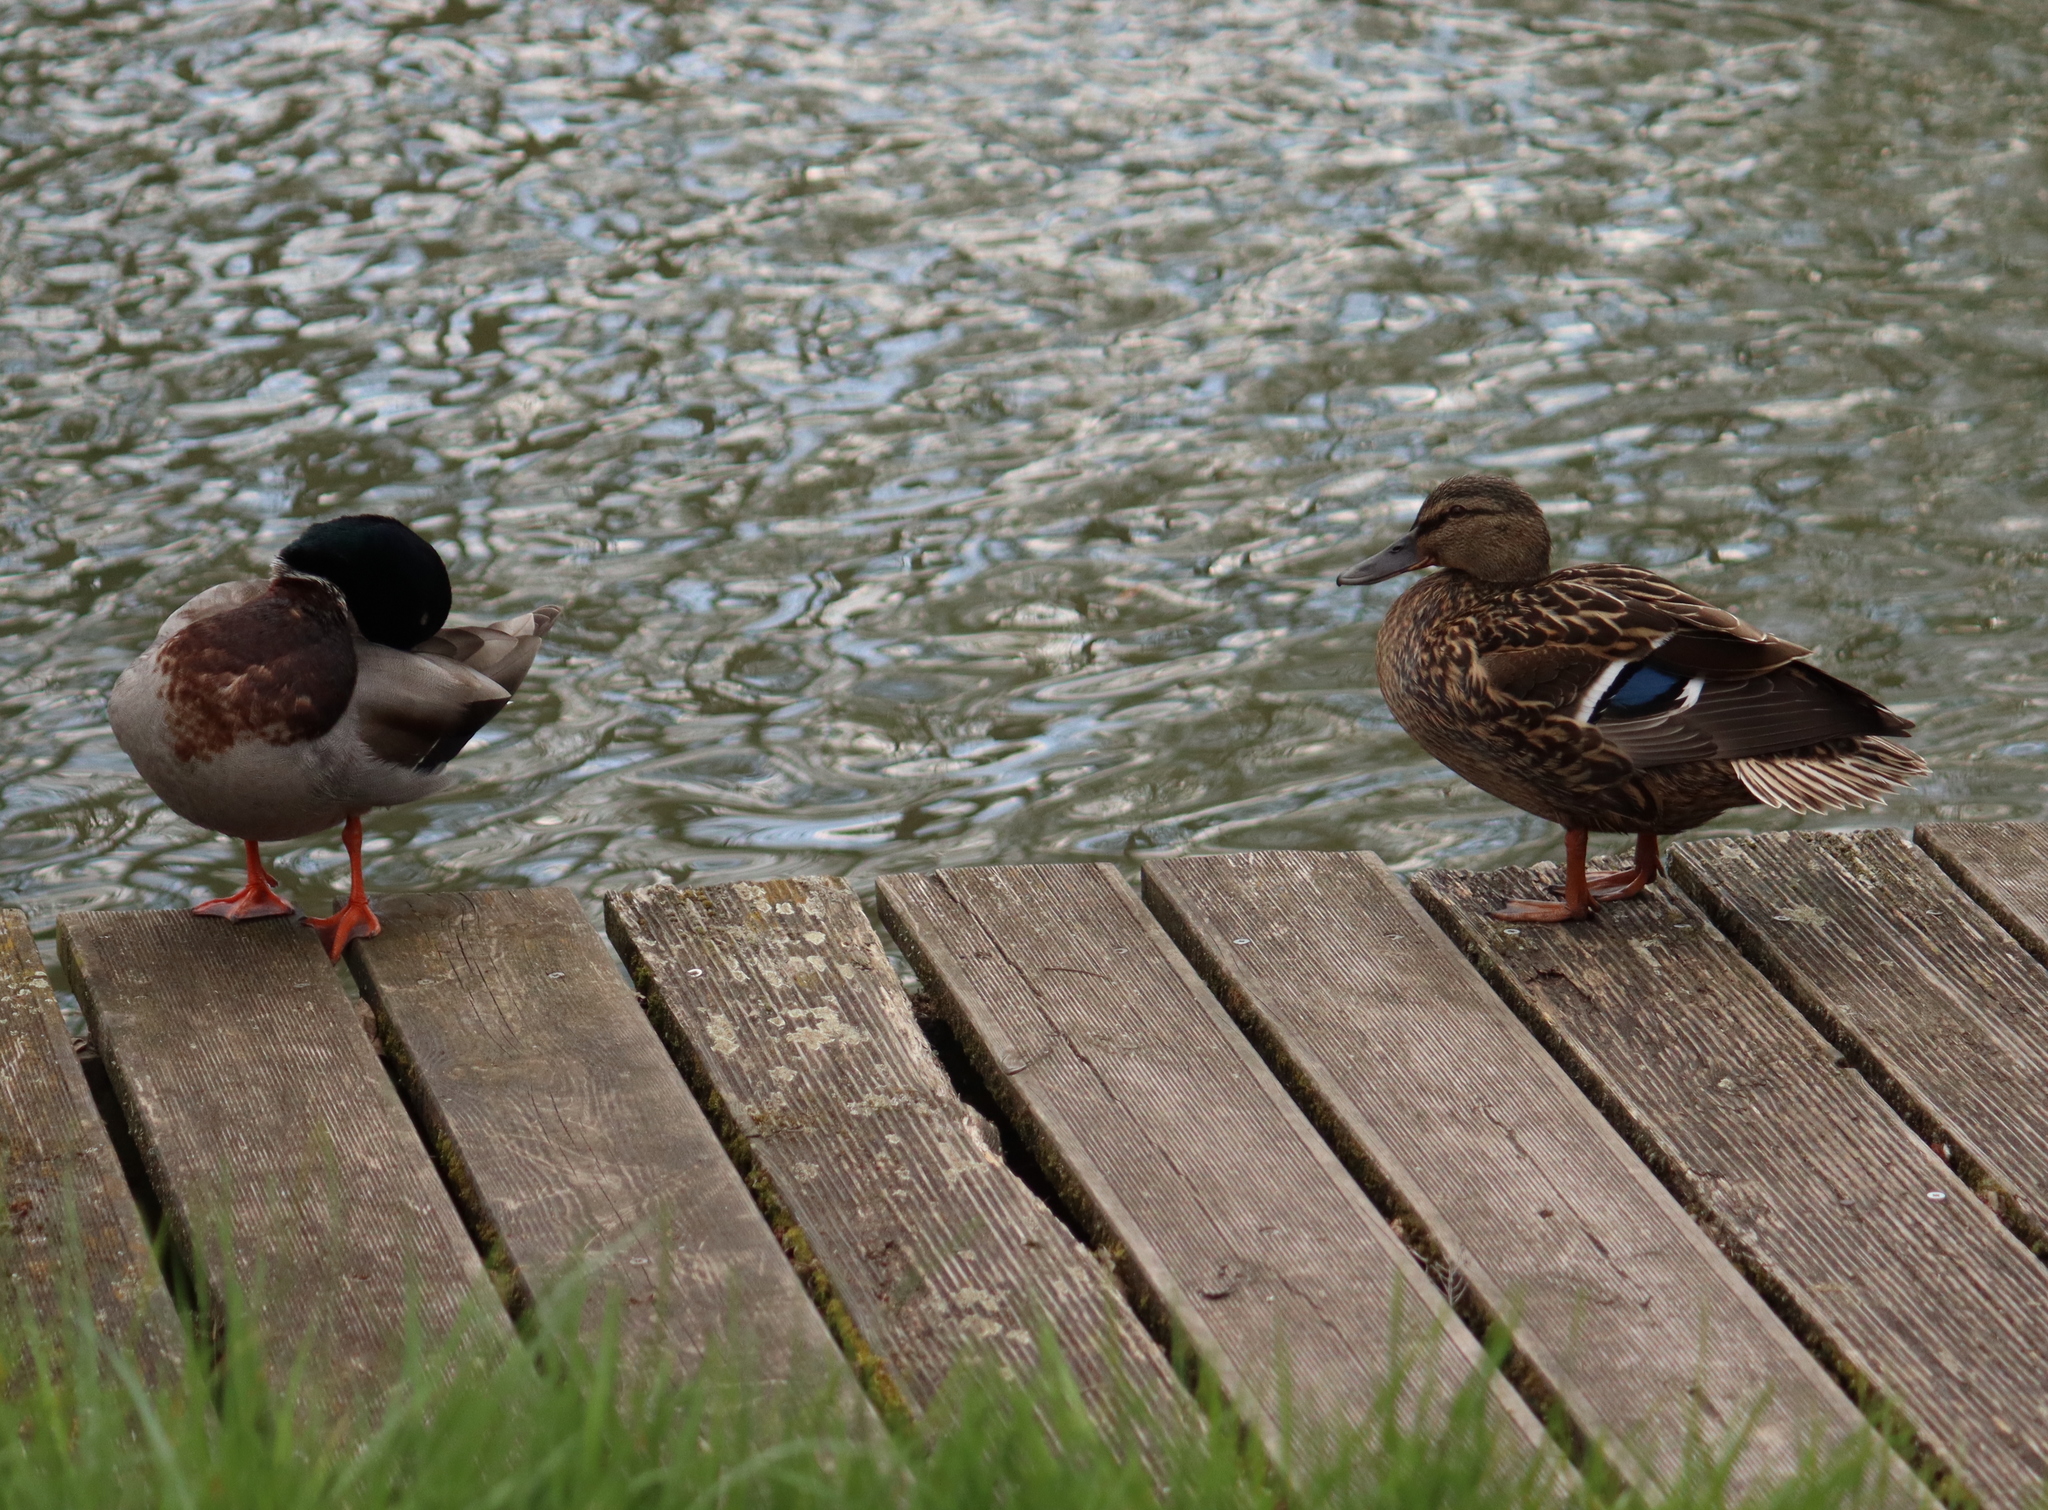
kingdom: Animalia
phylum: Chordata
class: Aves
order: Anseriformes
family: Anatidae
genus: Anas
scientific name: Anas platyrhynchos
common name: Mallard
